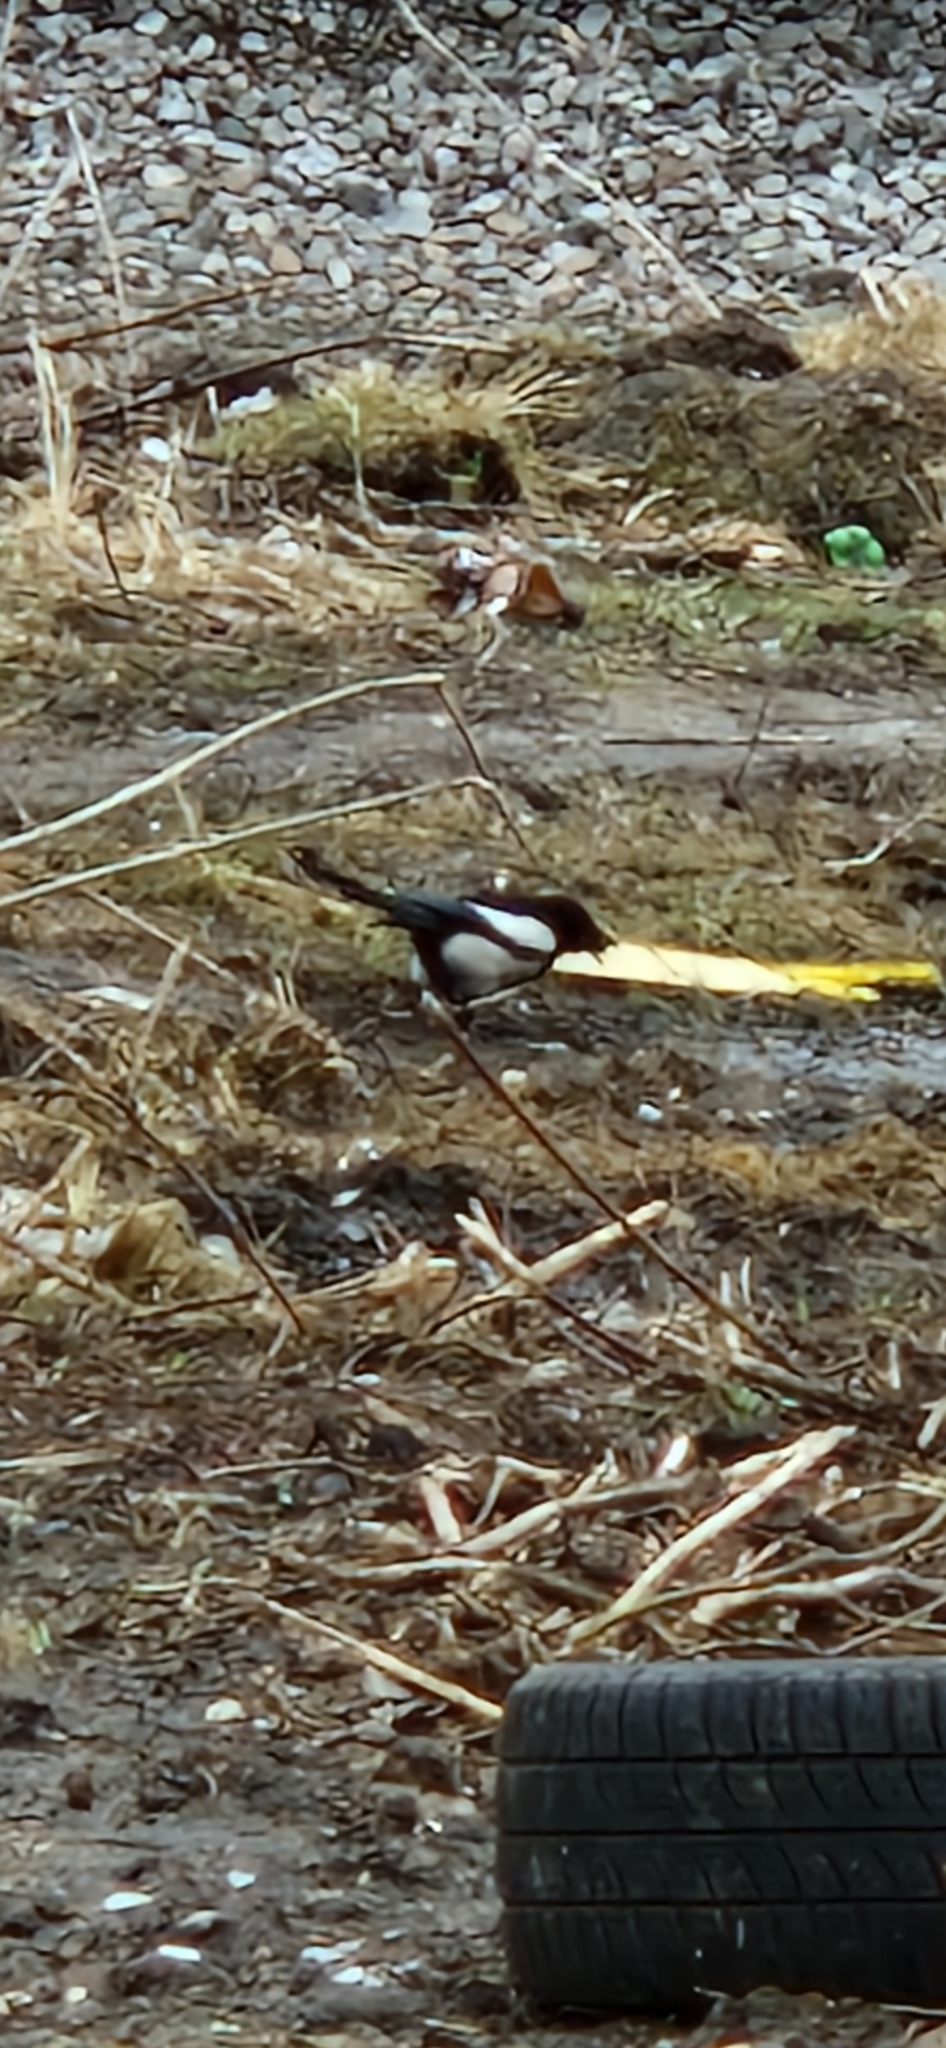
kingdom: Animalia
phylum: Chordata
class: Aves
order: Passeriformes
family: Corvidae
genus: Pica
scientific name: Pica pica
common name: Eurasian magpie
